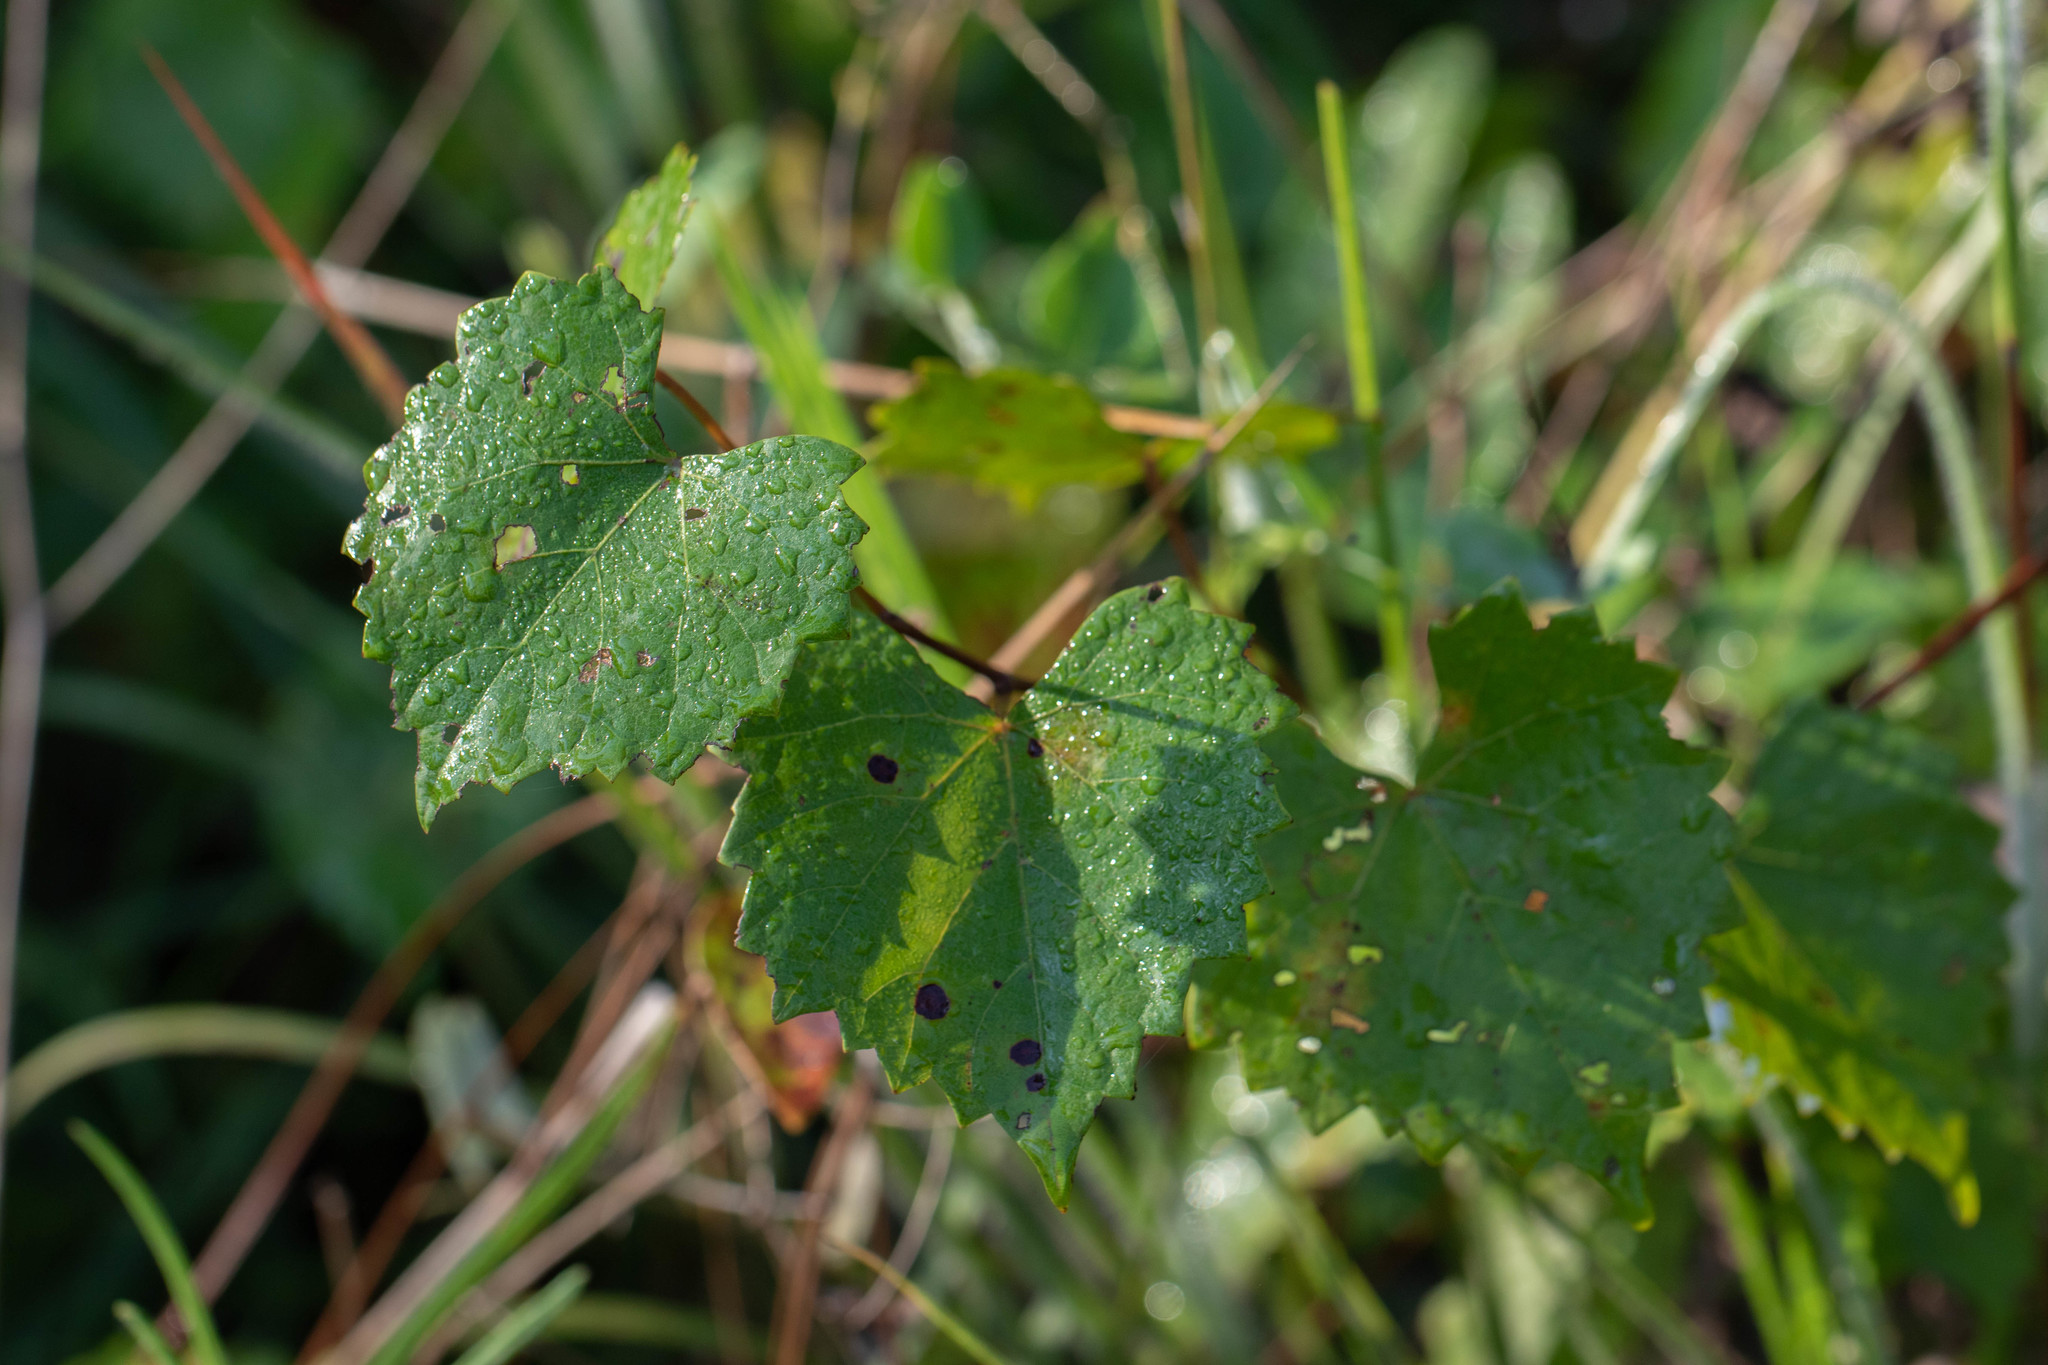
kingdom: Plantae
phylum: Tracheophyta
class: Magnoliopsida
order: Vitales
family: Vitaceae
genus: Vitis
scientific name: Vitis rotundifolia
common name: Muscadine grape
